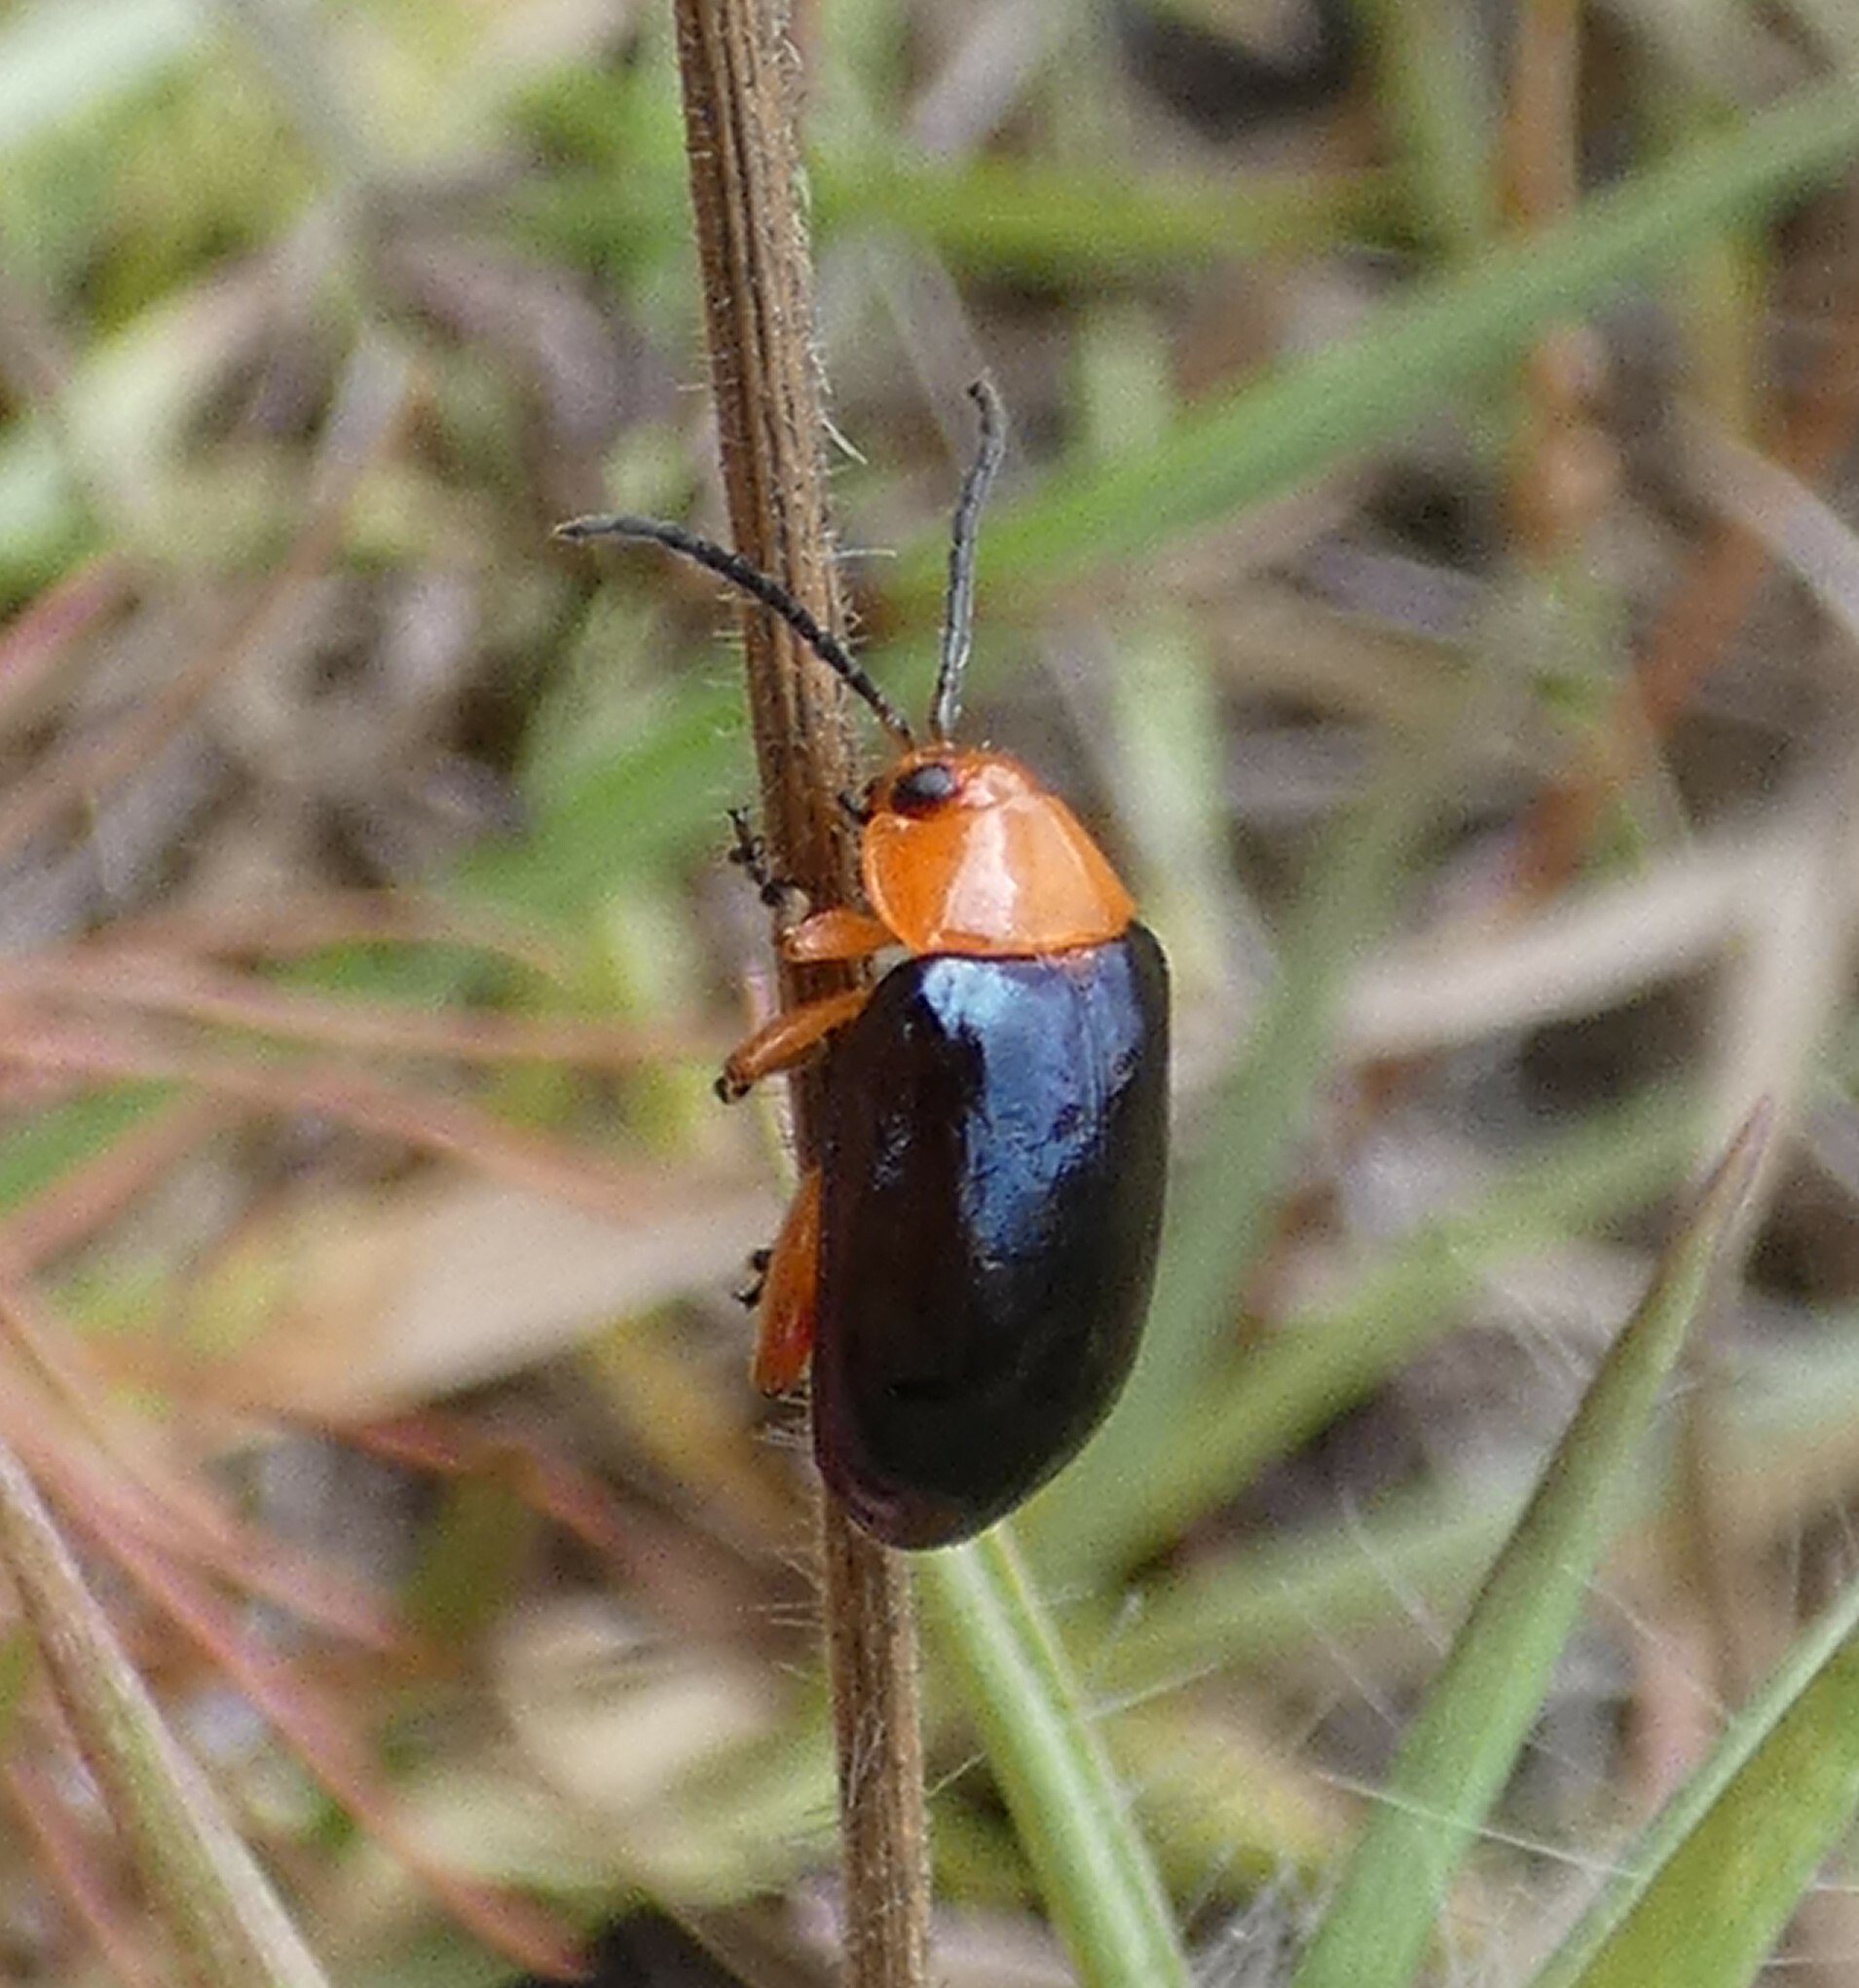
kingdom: Animalia
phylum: Arthropoda
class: Insecta
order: Coleoptera
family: Chrysomelidae
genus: Asphaera
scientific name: Asphaera lustrans
